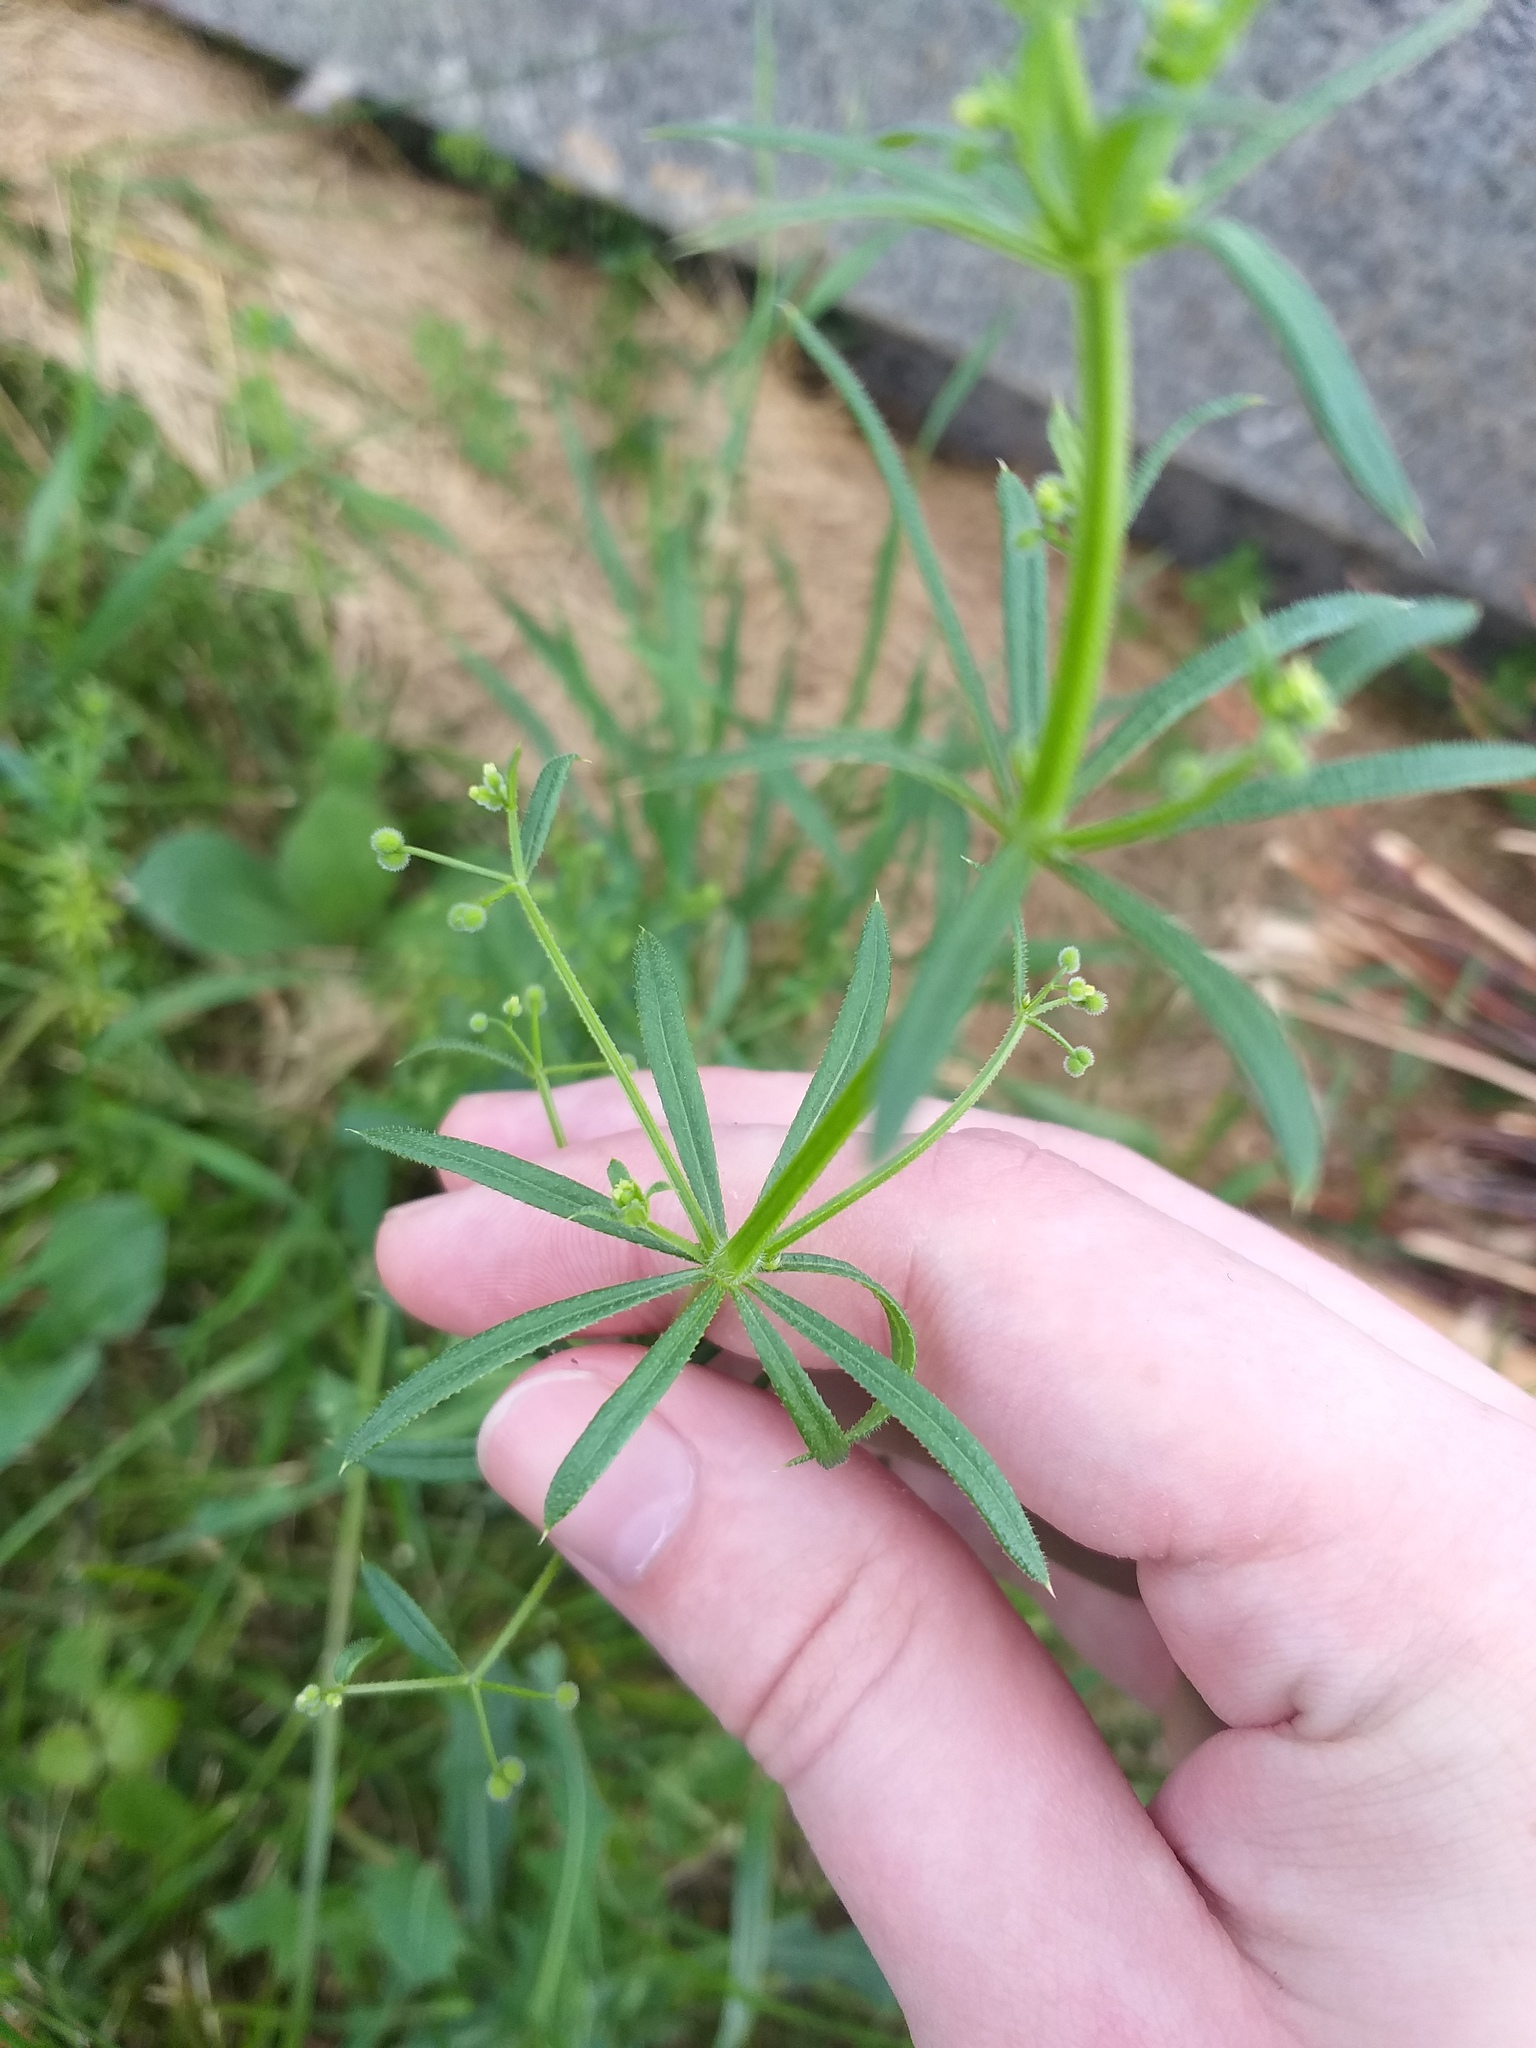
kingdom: Plantae
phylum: Tracheophyta
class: Magnoliopsida
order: Gentianales
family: Rubiaceae
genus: Galium
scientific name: Galium
